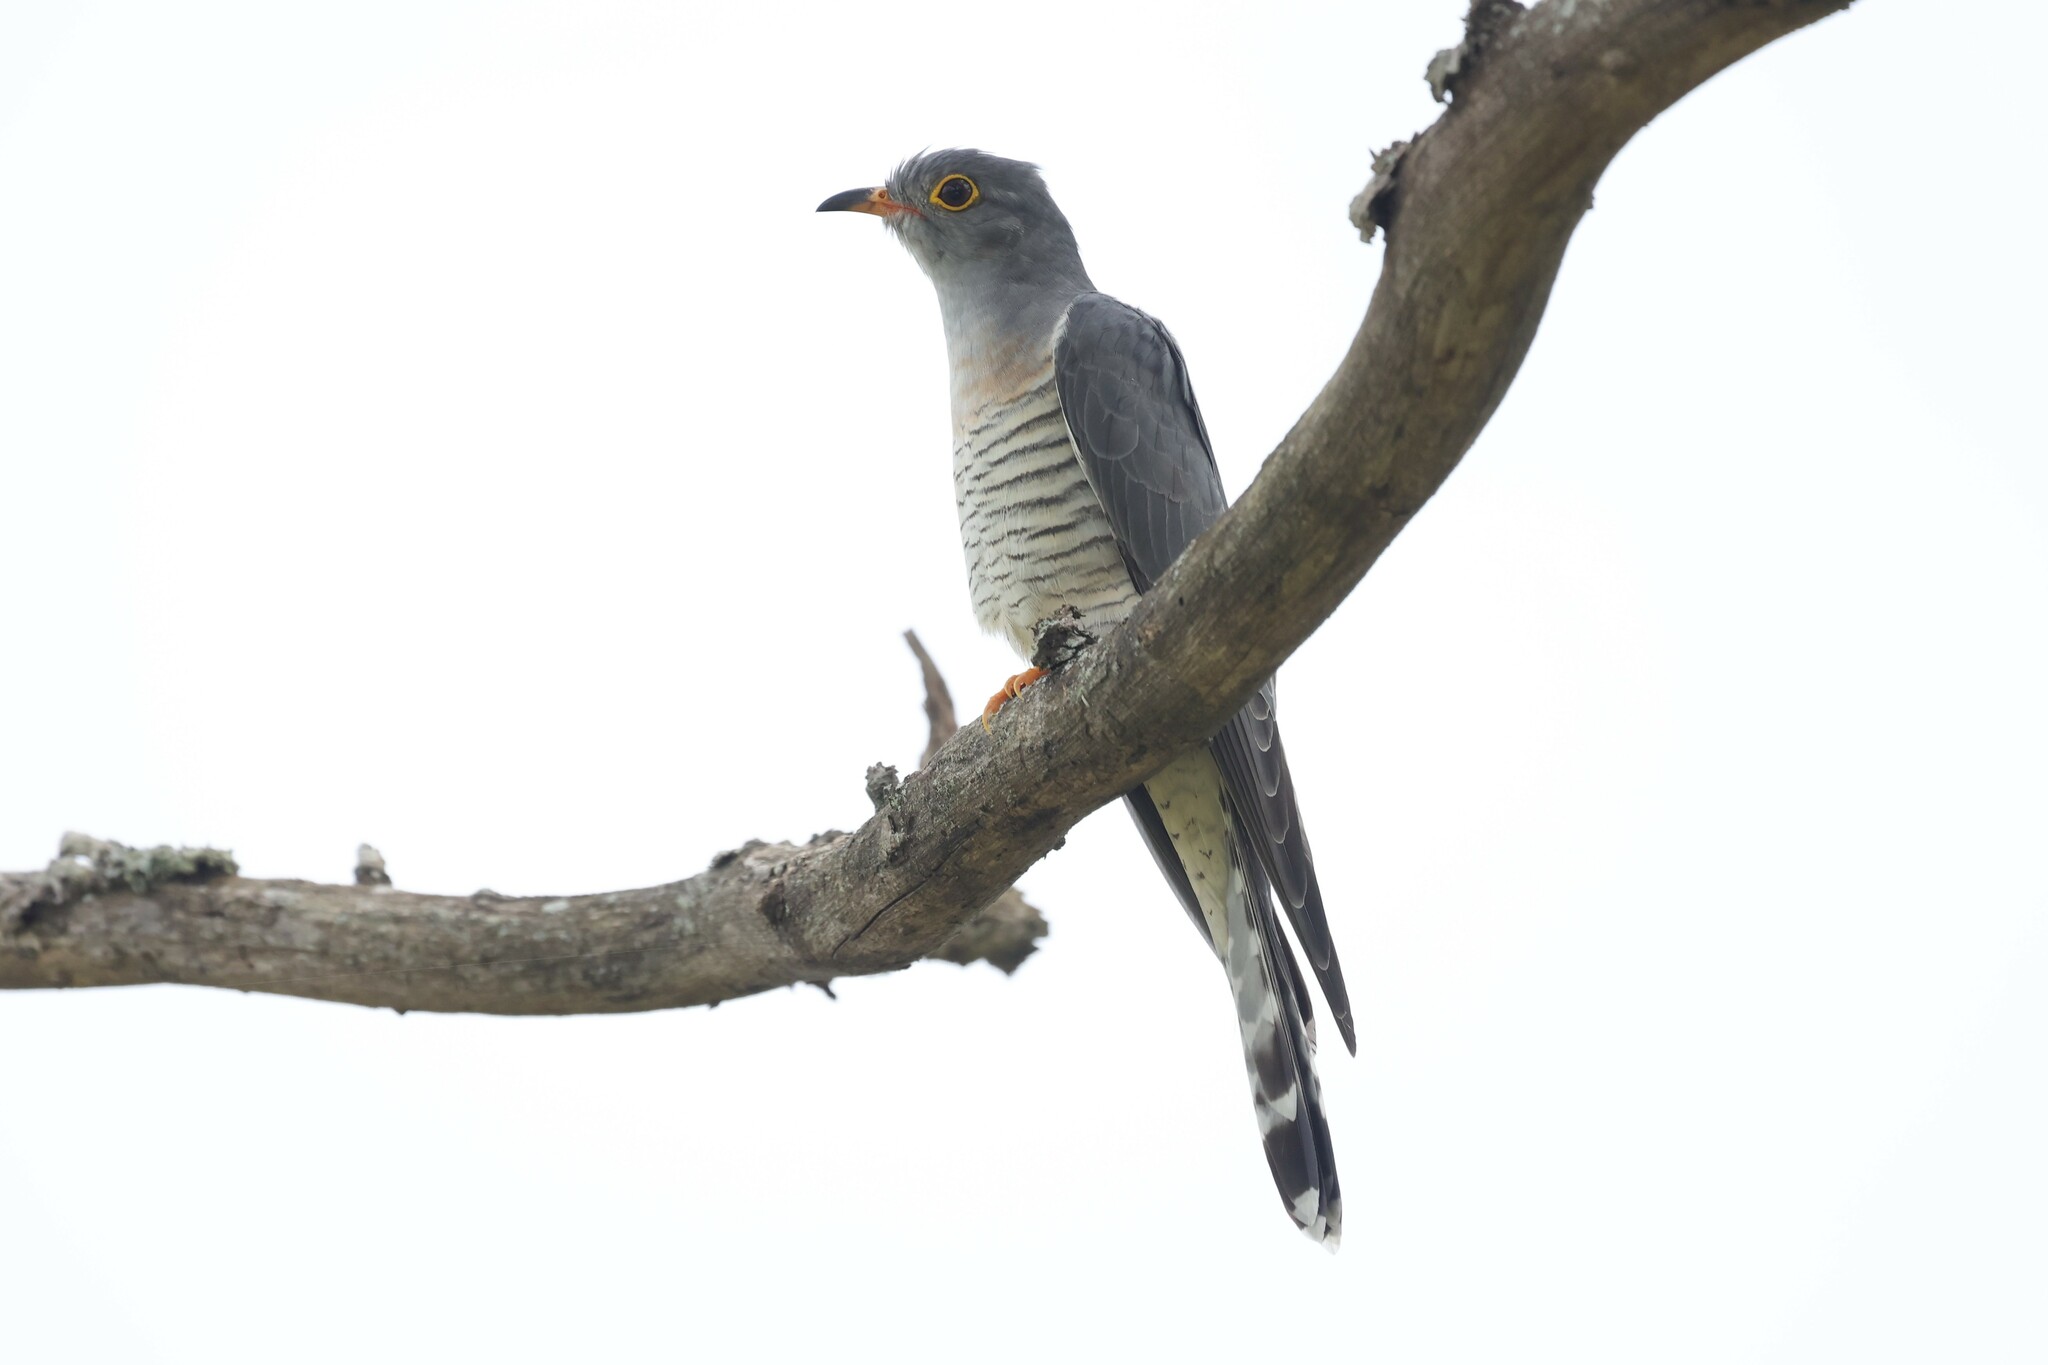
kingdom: Animalia
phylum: Chordata
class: Aves
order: Cuculiformes
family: Cuculidae
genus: Cuculus
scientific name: Cuculus solitarius
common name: Red-chested cuckoo
